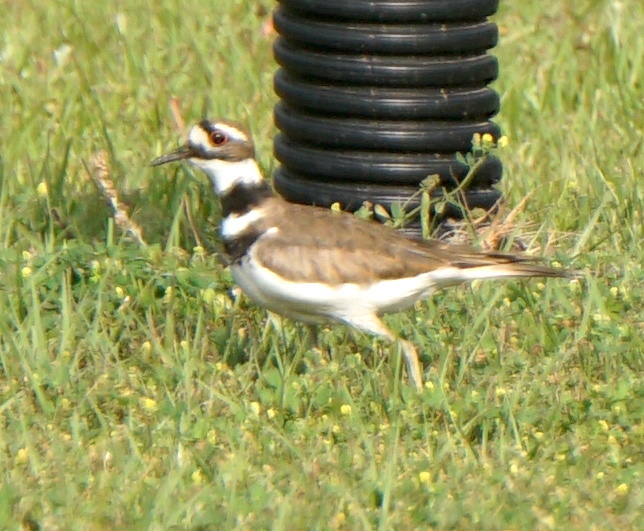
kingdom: Animalia
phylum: Chordata
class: Aves
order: Charadriiformes
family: Charadriidae
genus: Charadrius
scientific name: Charadrius vociferus
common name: Killdeer
